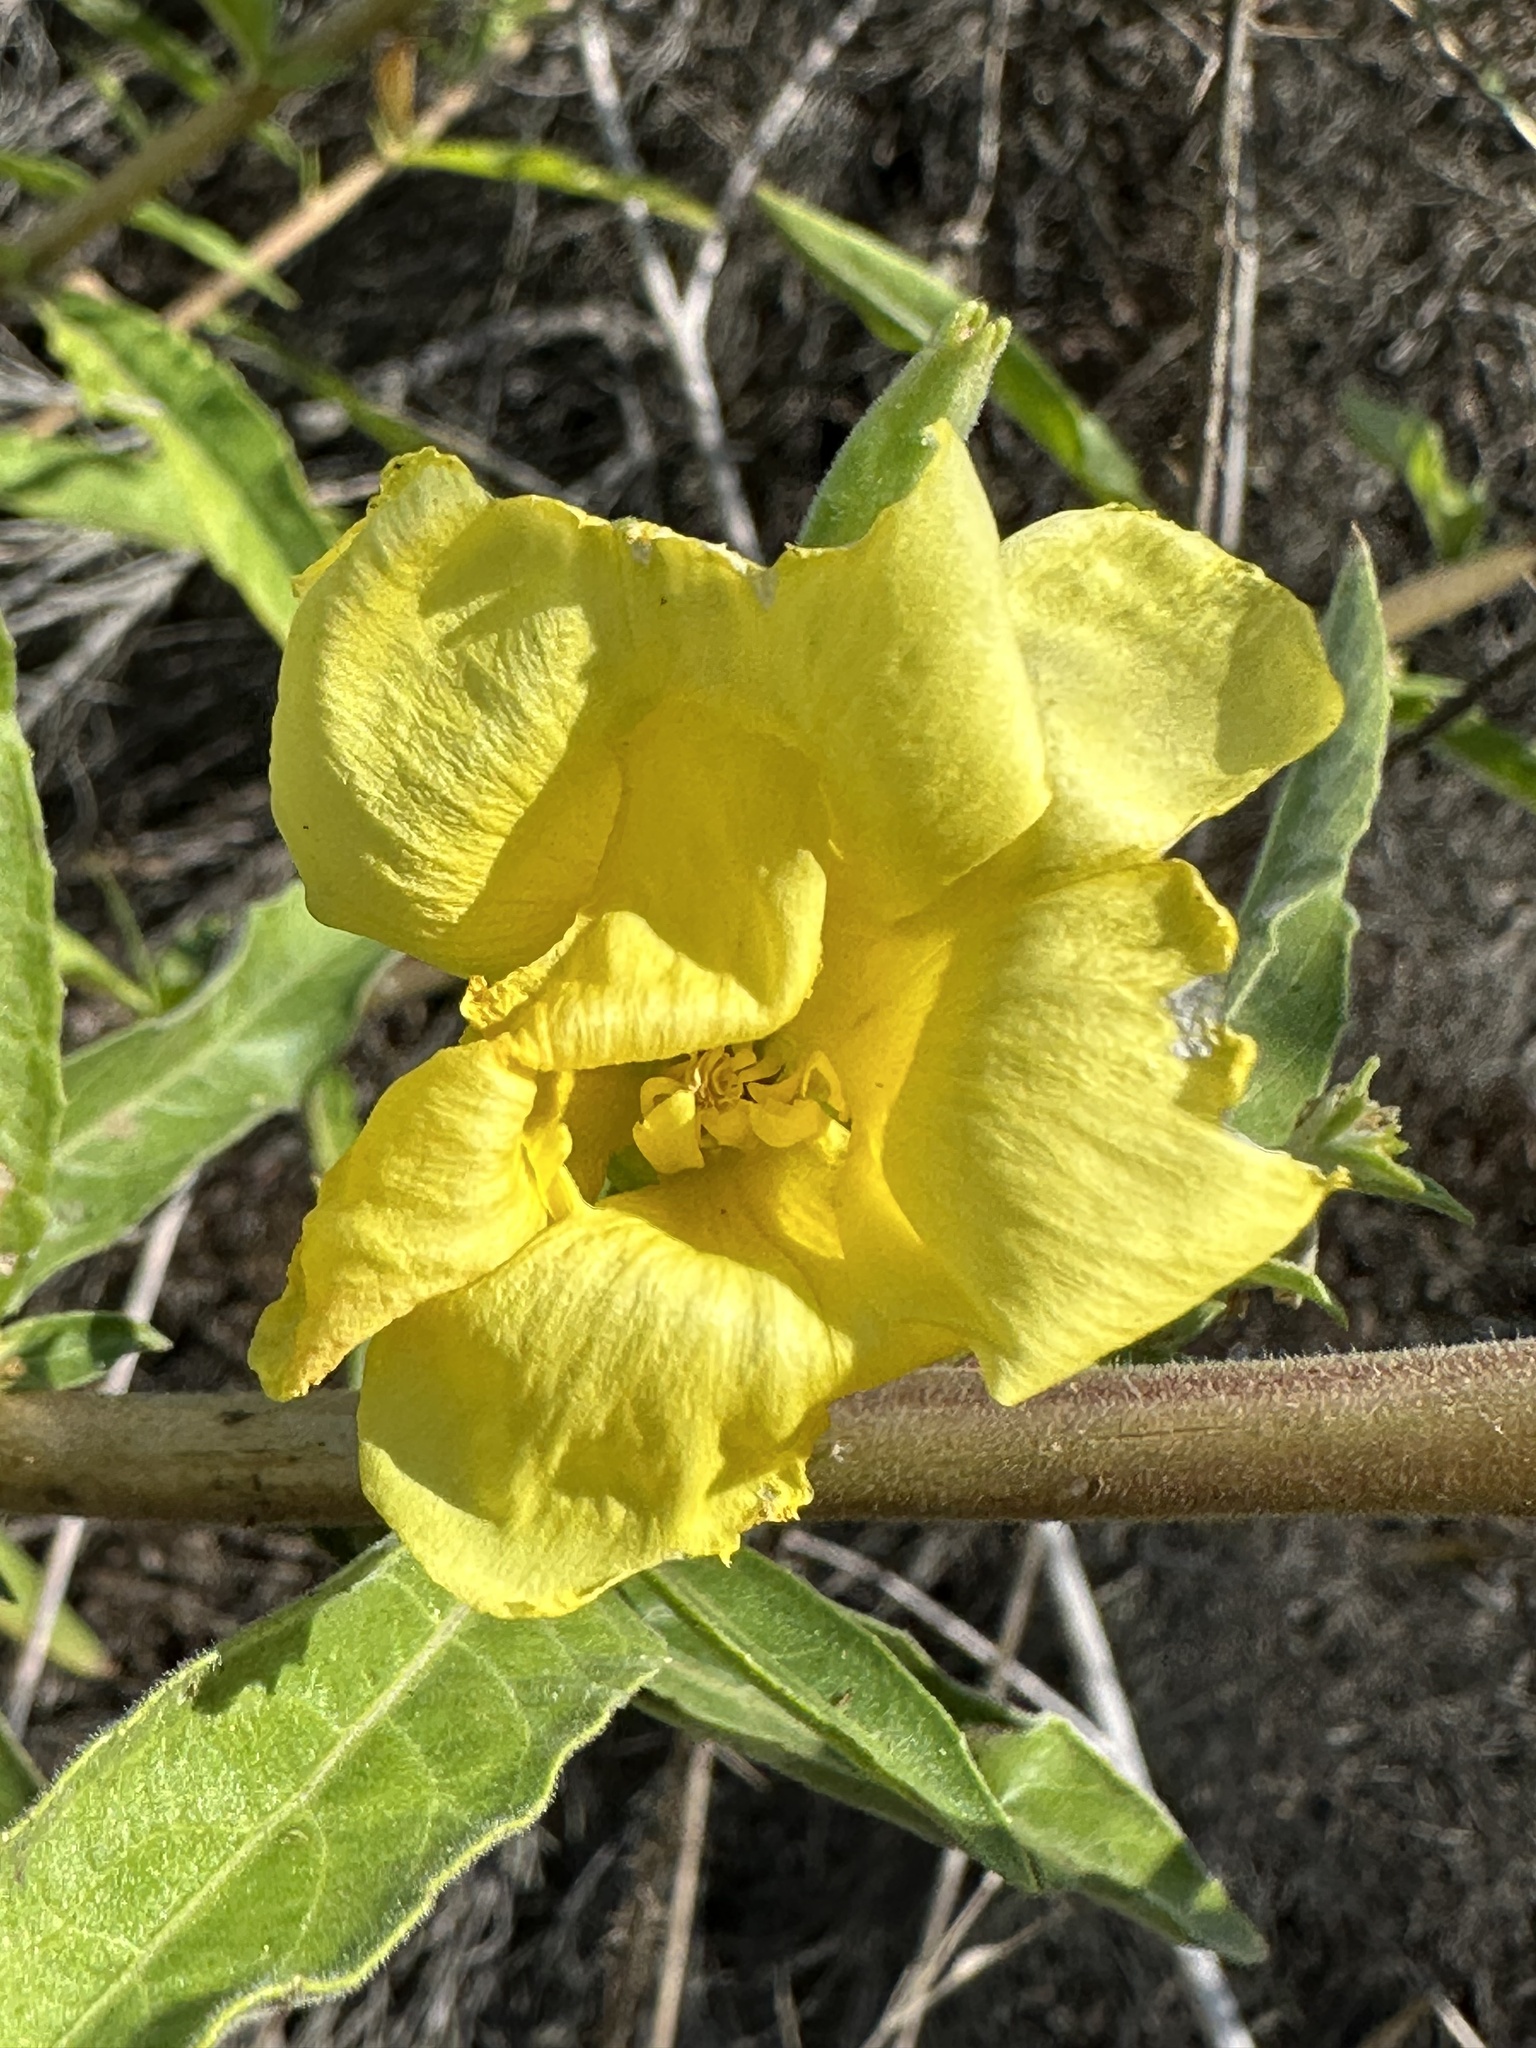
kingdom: Plantae
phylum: Tracheophyta
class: Magnoliopsida
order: Myrtales
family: Onagraceae
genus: Oenothera
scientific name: Oenothera elata
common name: Hooker's evening-primrose
